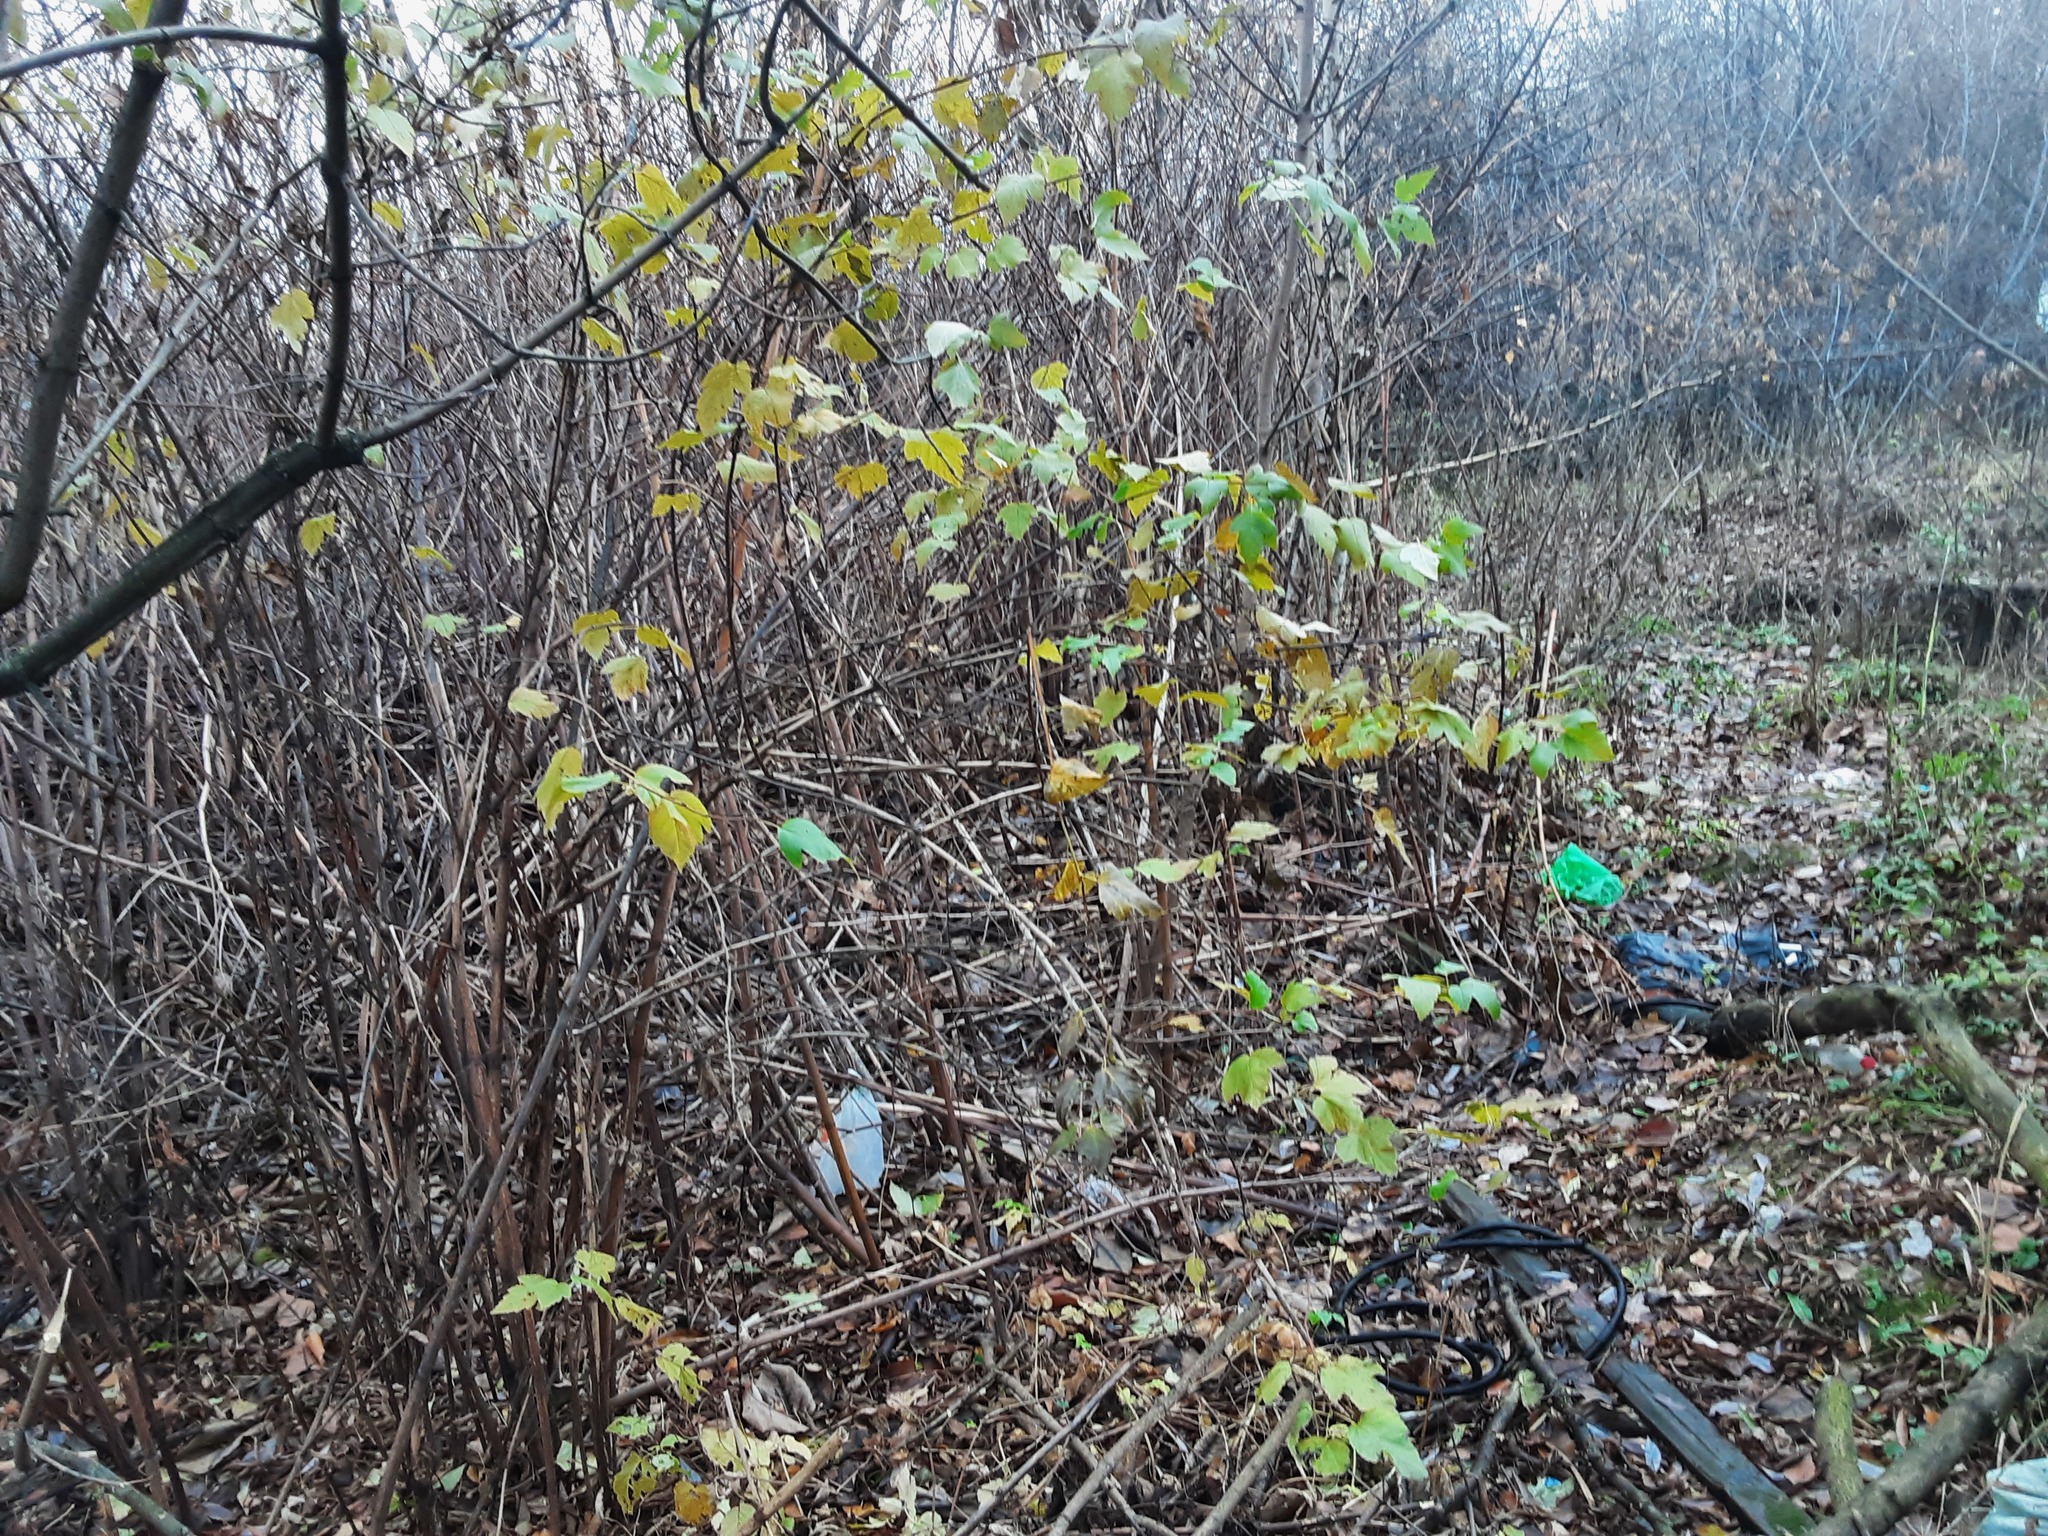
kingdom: Plantae
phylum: Tracheophyta
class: Magnoliopsida
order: Rosales
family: Rosaceae
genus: Physocarpus
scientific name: Physocarpus opulifolius
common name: Ninebark
